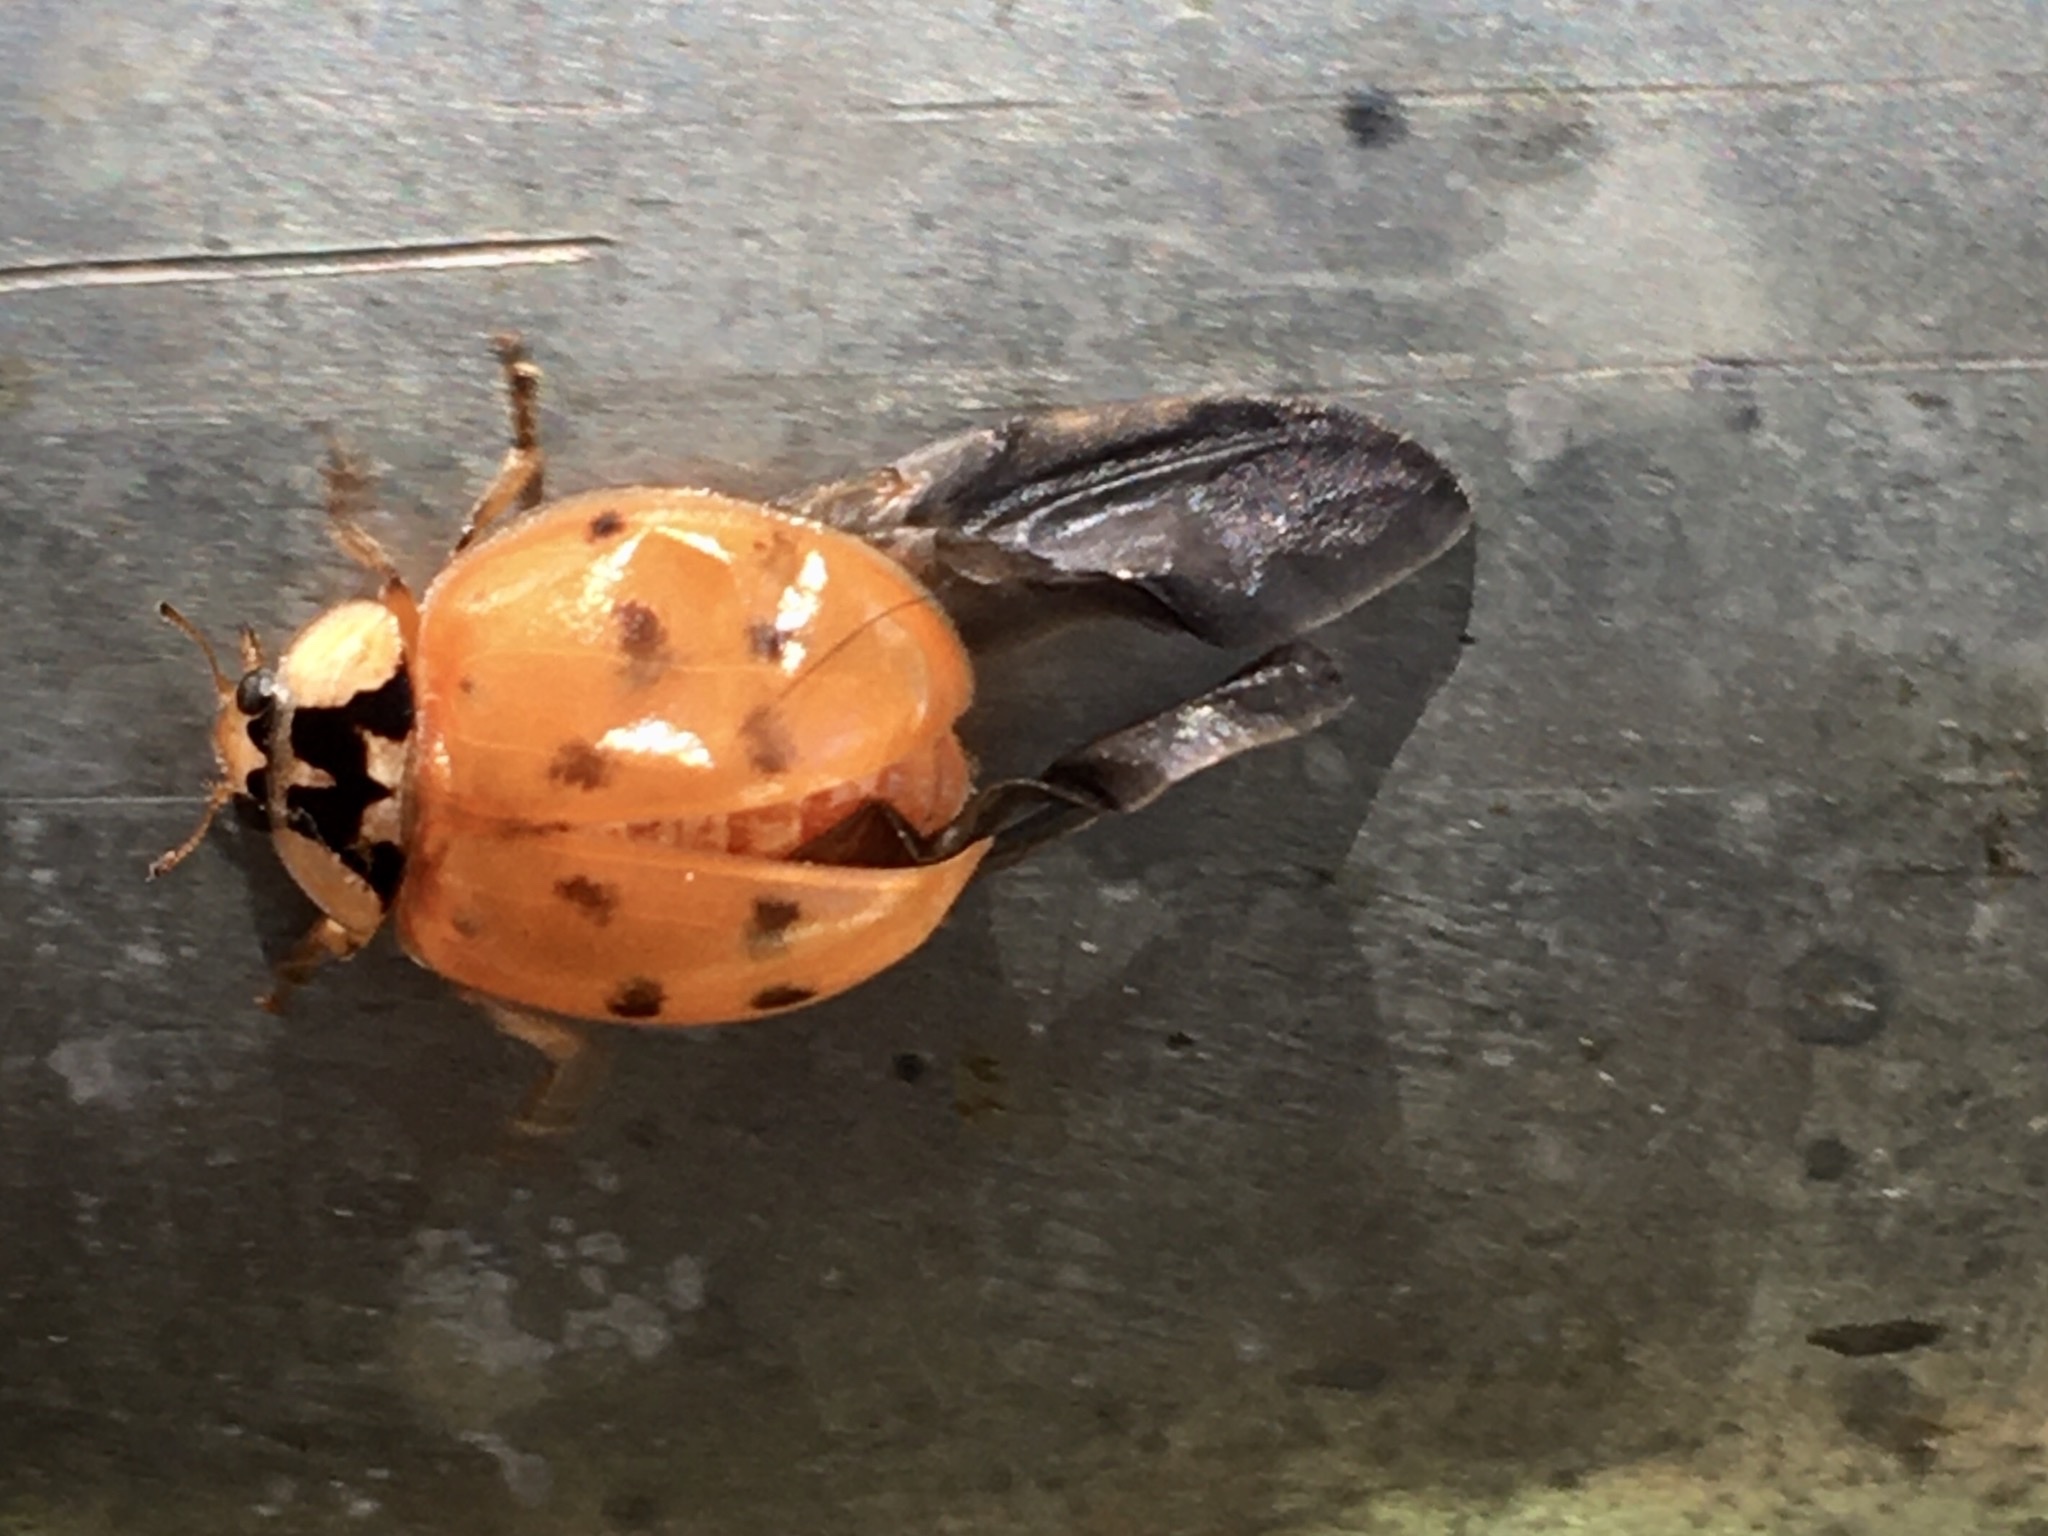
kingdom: Animalia
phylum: Arthropoda
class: Insecta
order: Coleoptera
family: Coccinellidae
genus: Harmonia
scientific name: Harmonia axyridis
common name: Harlequin ladybird
